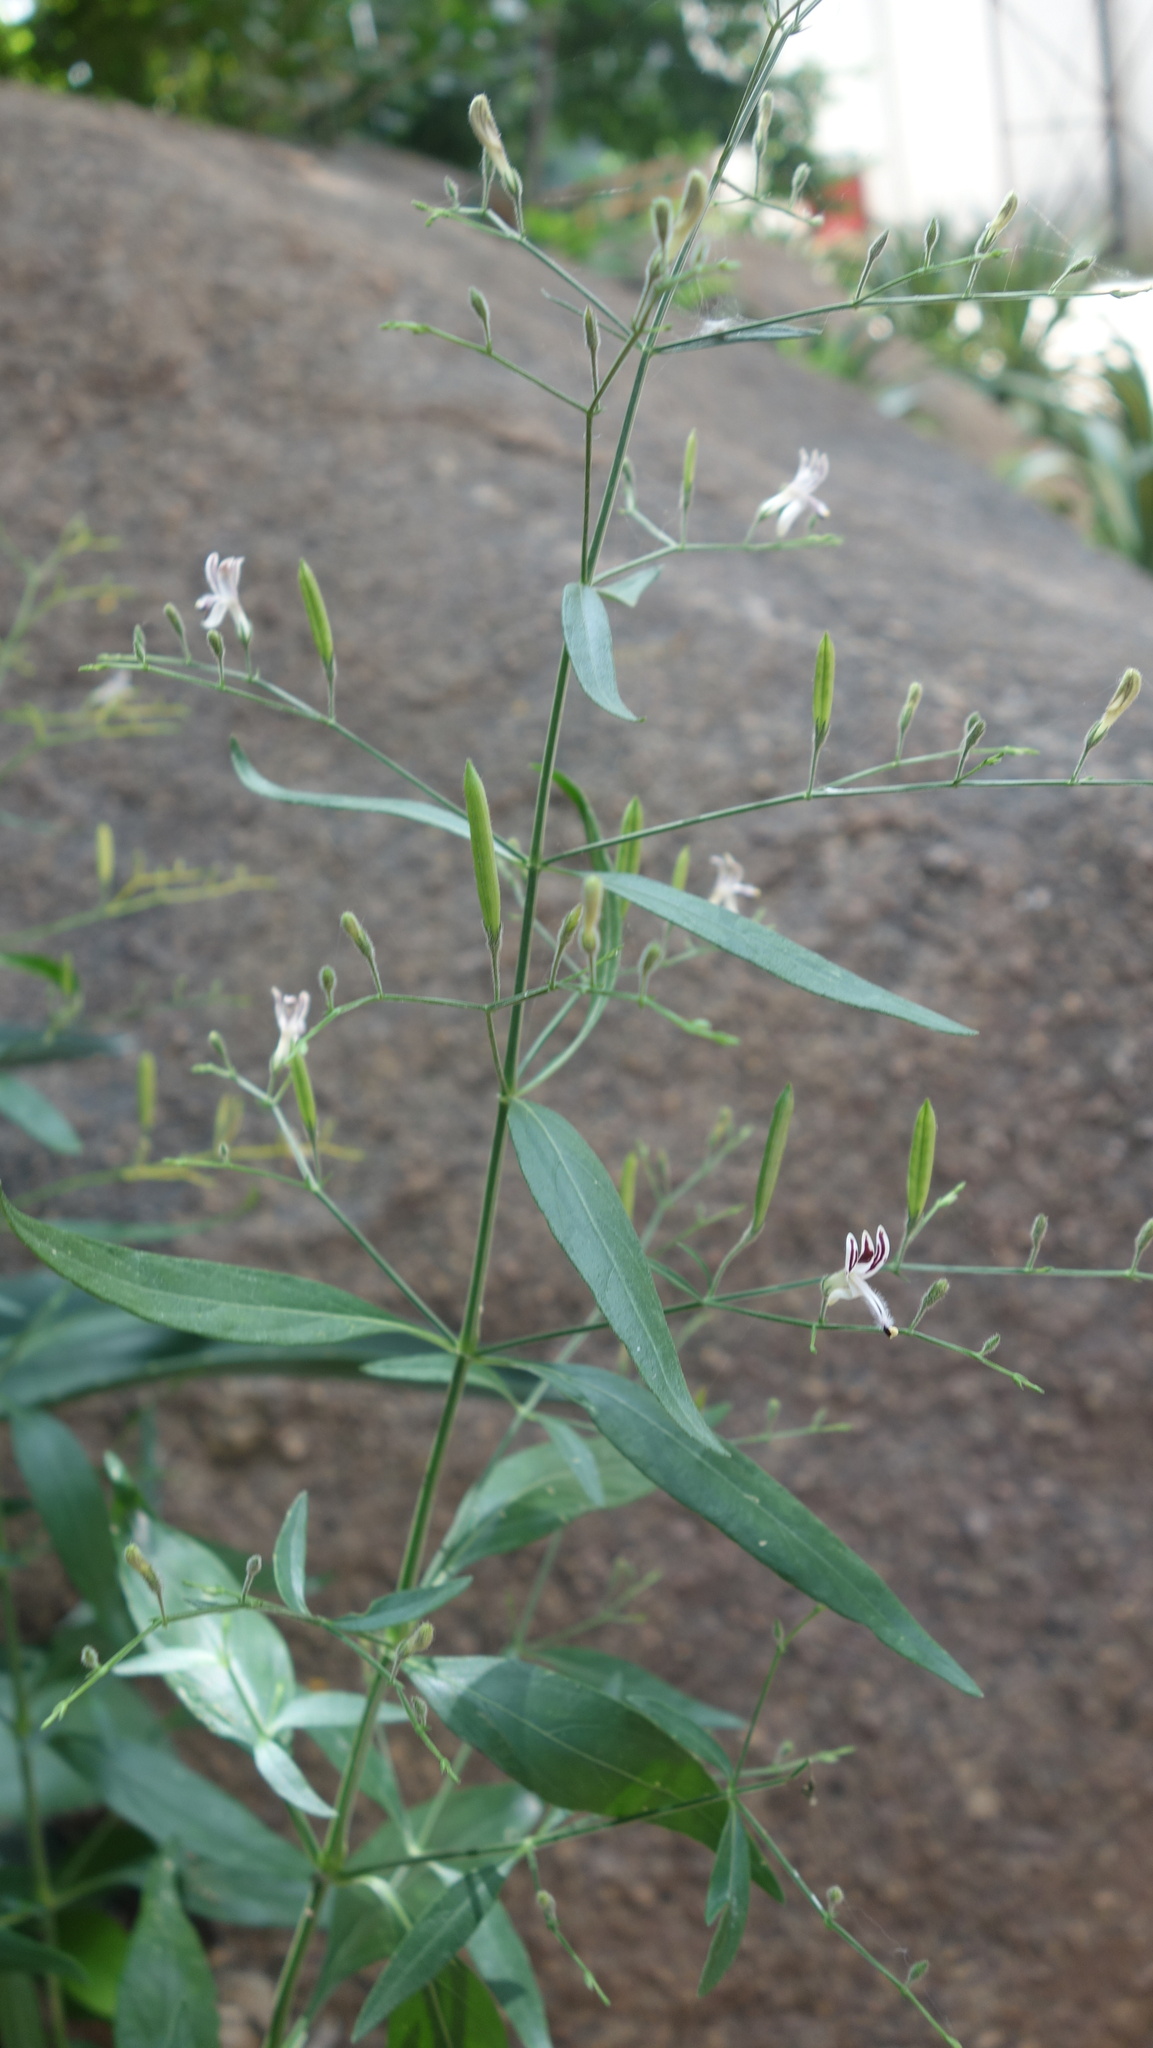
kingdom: Plantae
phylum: Tracheophyta
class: Magnoliopsida
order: Lamiales
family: Acanthaceae
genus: Andrographis
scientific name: Andrographis paniculata
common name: Green chireta
